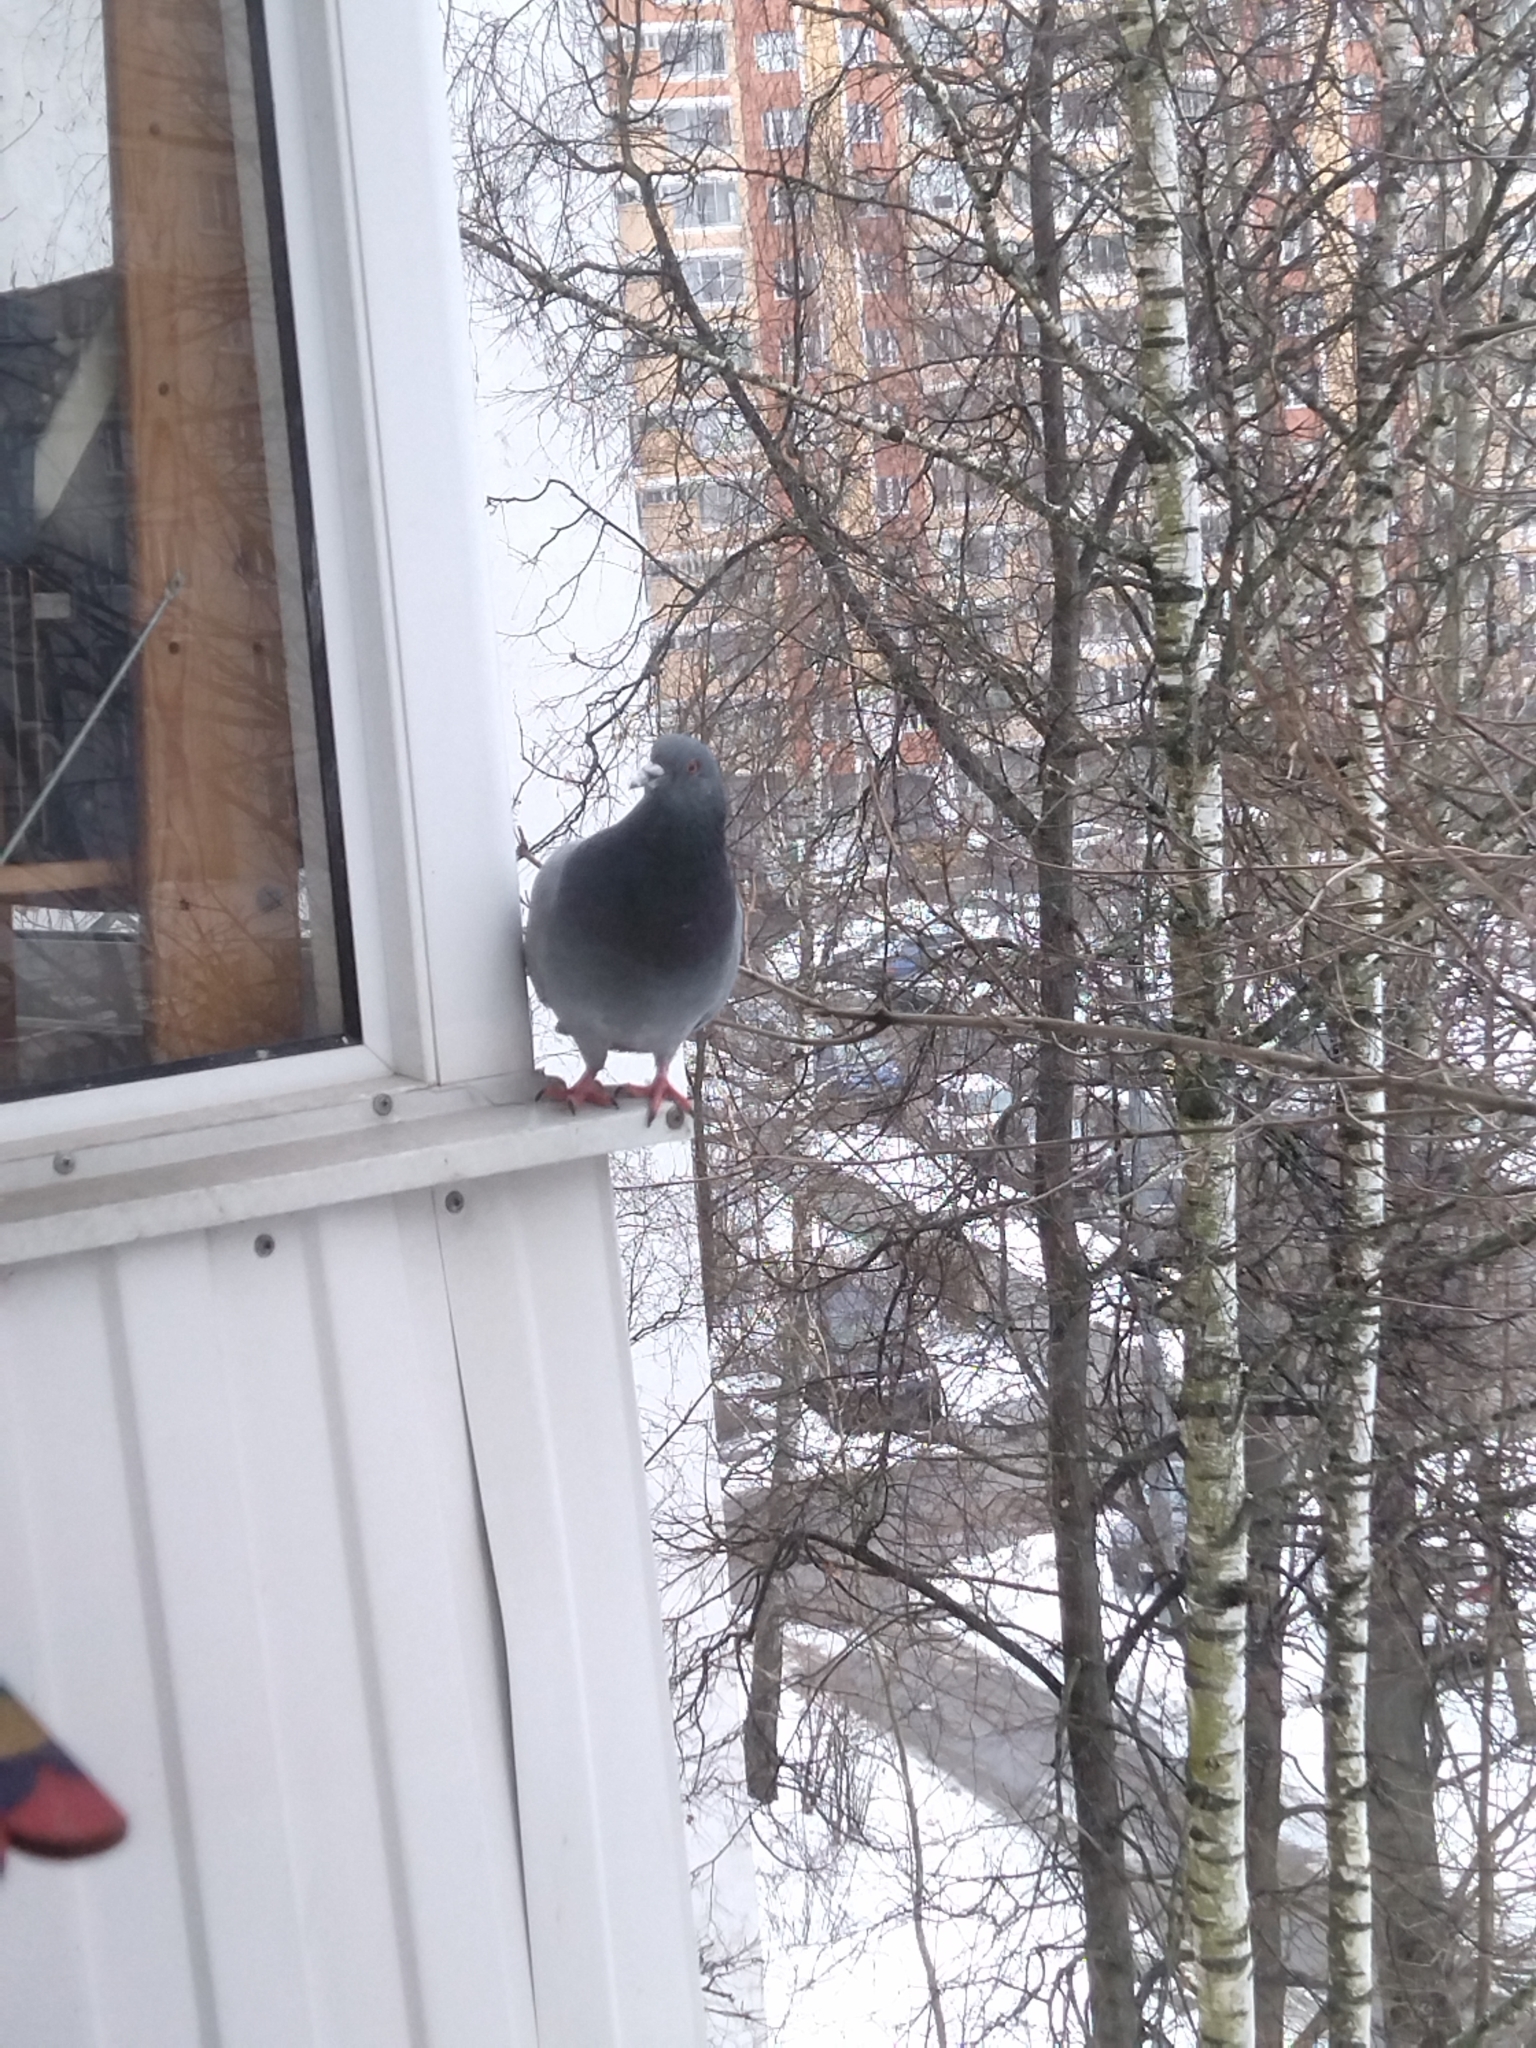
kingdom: Animalia
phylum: Chordata
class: Aves
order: Columbiformes
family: Columbidae
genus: Columba
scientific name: Columba livia
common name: Rock pigeon
